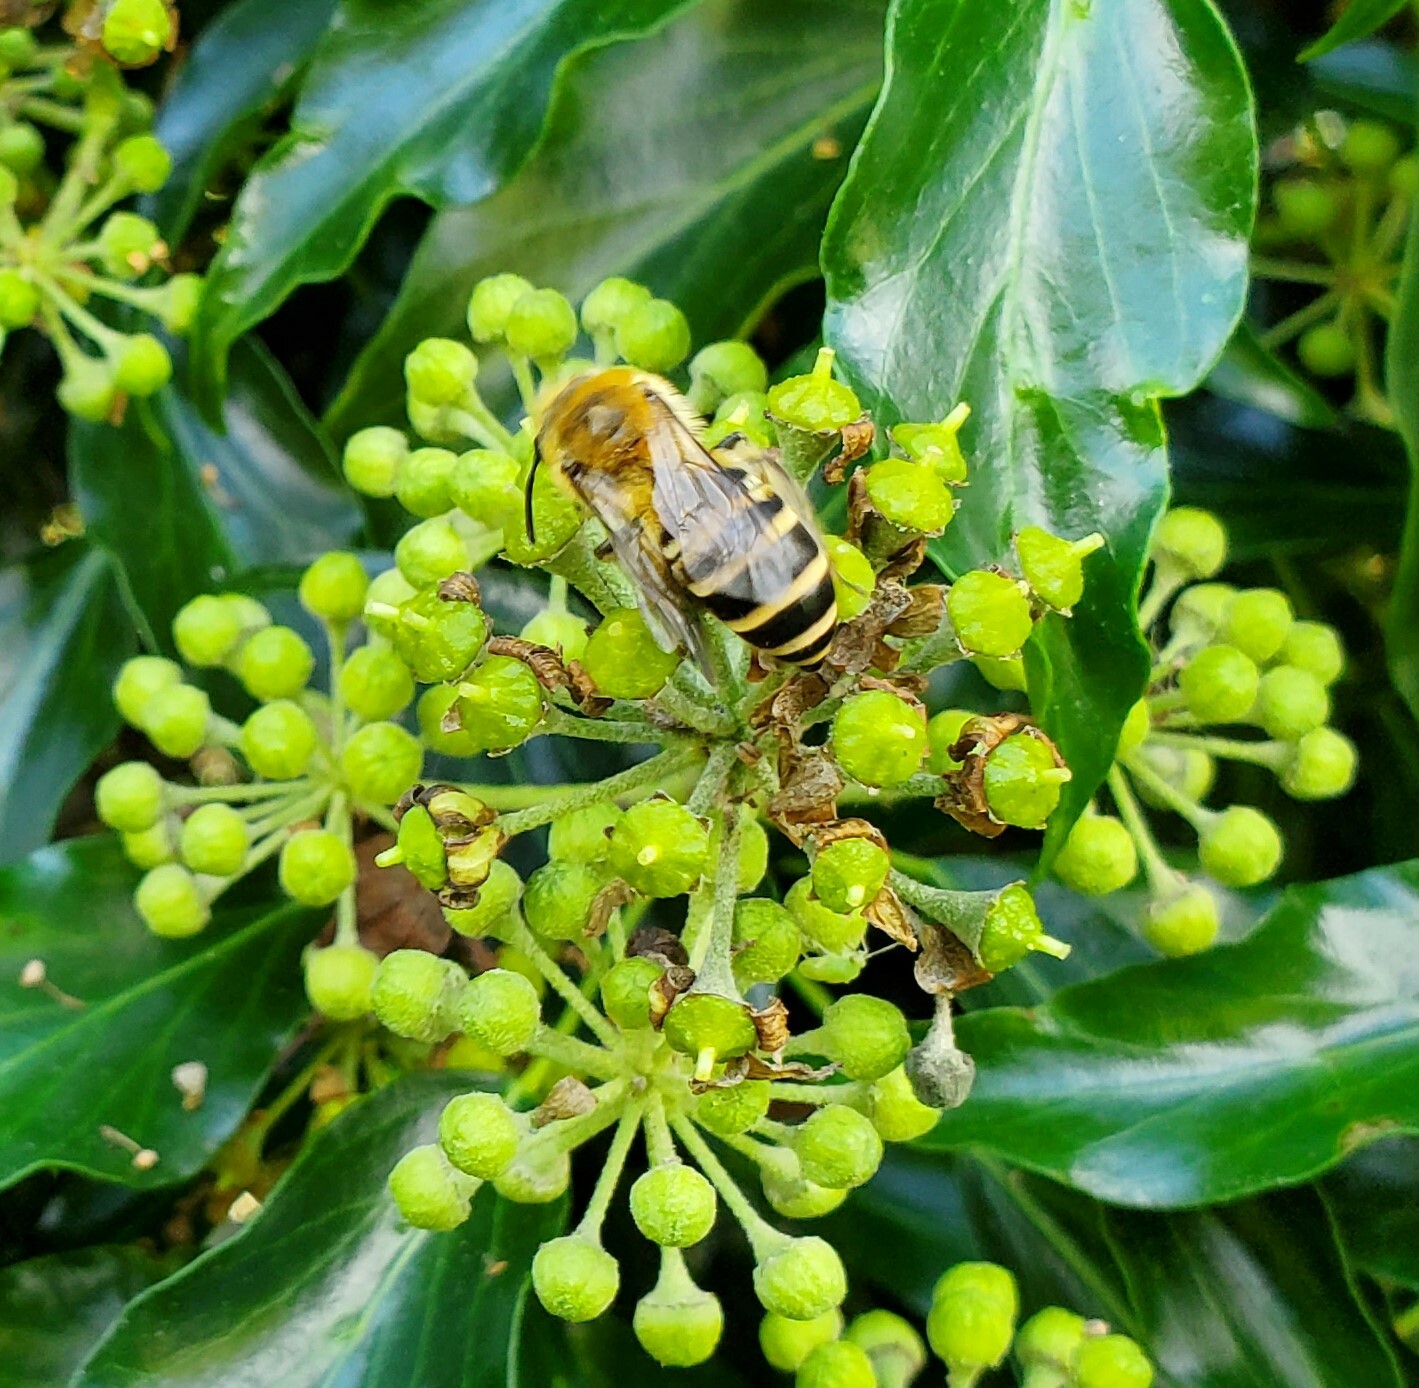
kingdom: Animalia
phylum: Arthropoda
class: Insecta
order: Hymenoptera
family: Colletidae
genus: Colletes
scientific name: Colletes hederae
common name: Ivy bee
